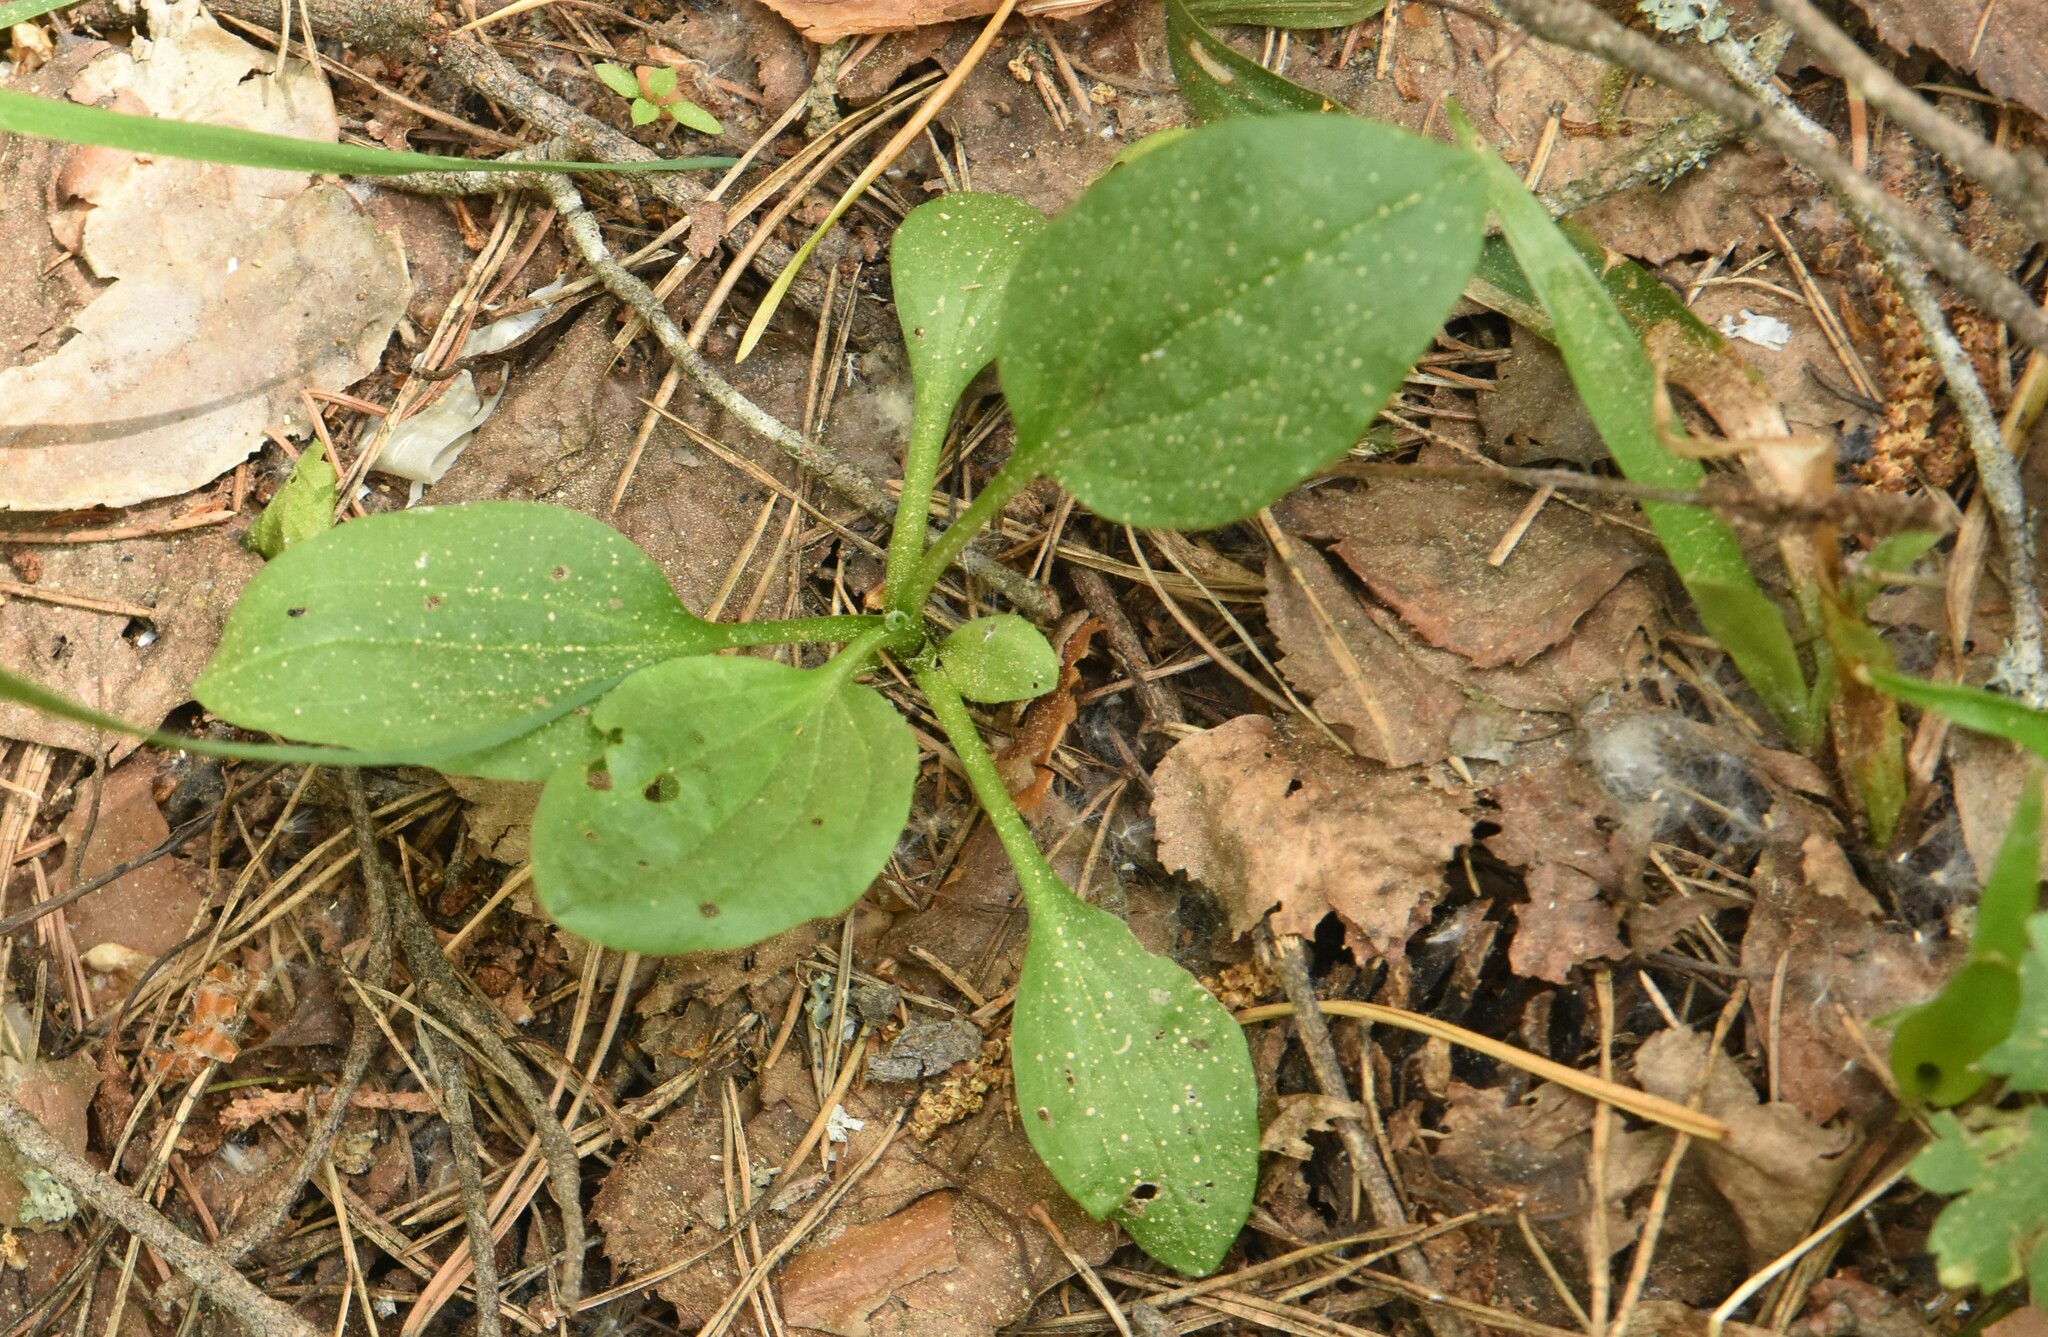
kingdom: Plantae
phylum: Tracheophyta
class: Magnoliopsida
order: Lamiales
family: Plantaginaceae
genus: Plantago
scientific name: Plantago major
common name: Common plantain
